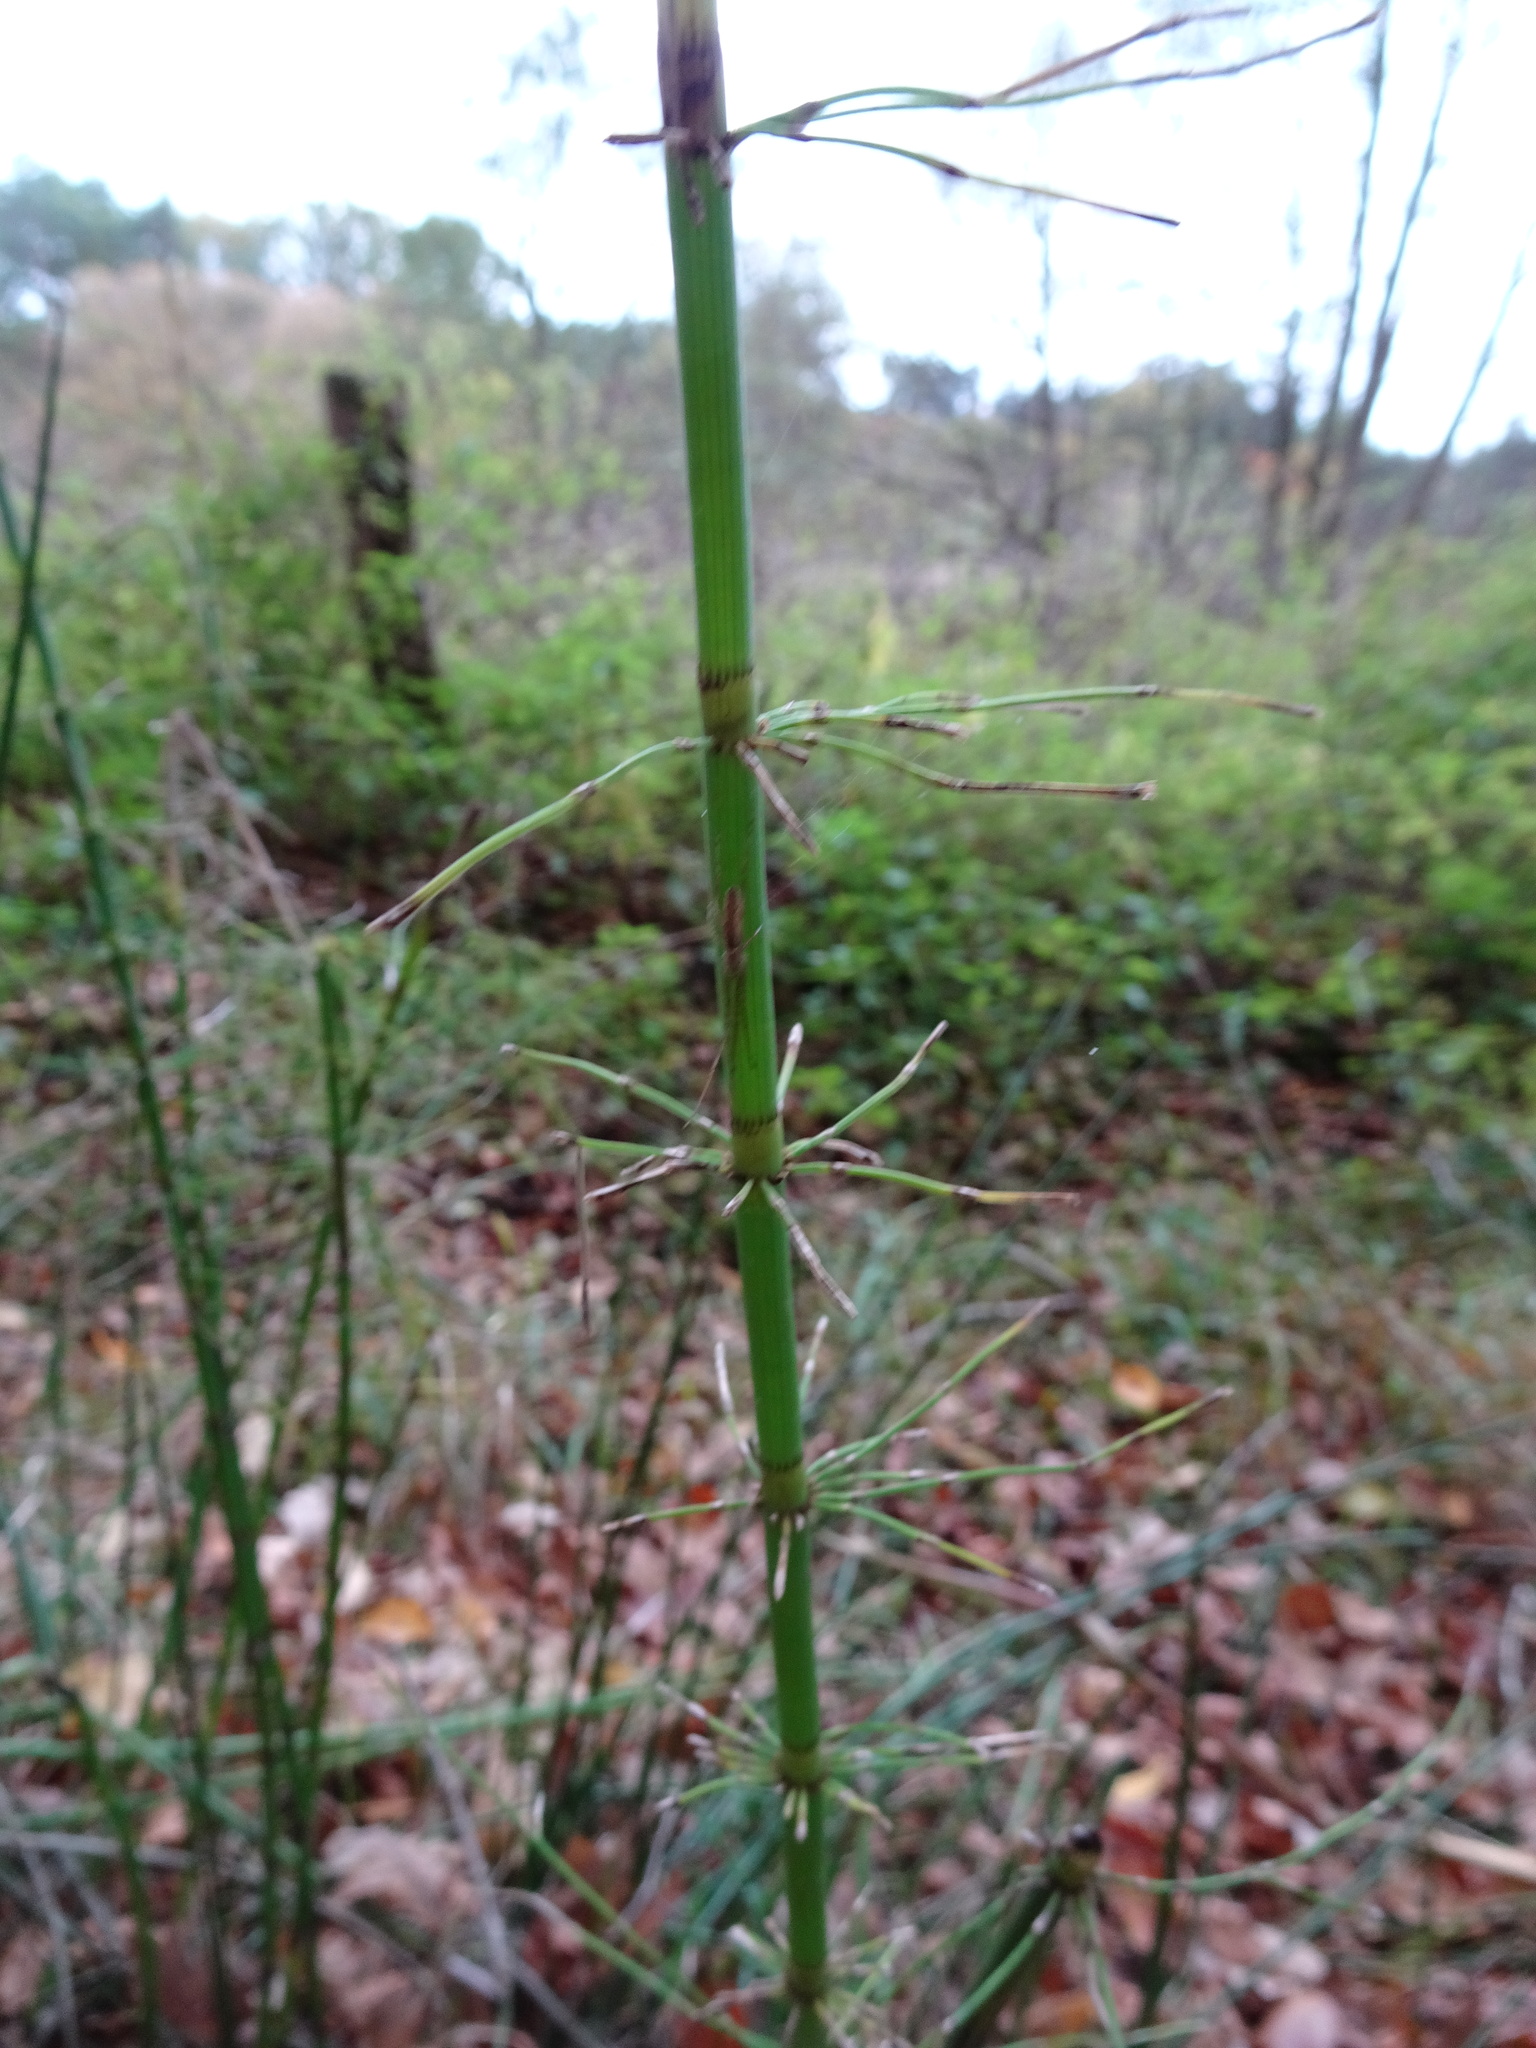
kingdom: Plantae
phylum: Tracheophyta
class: Polypodiopsida
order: Equisetales
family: Equisetaceae
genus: Equisetum
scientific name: Equisetum fluviatile
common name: Water horsetail
